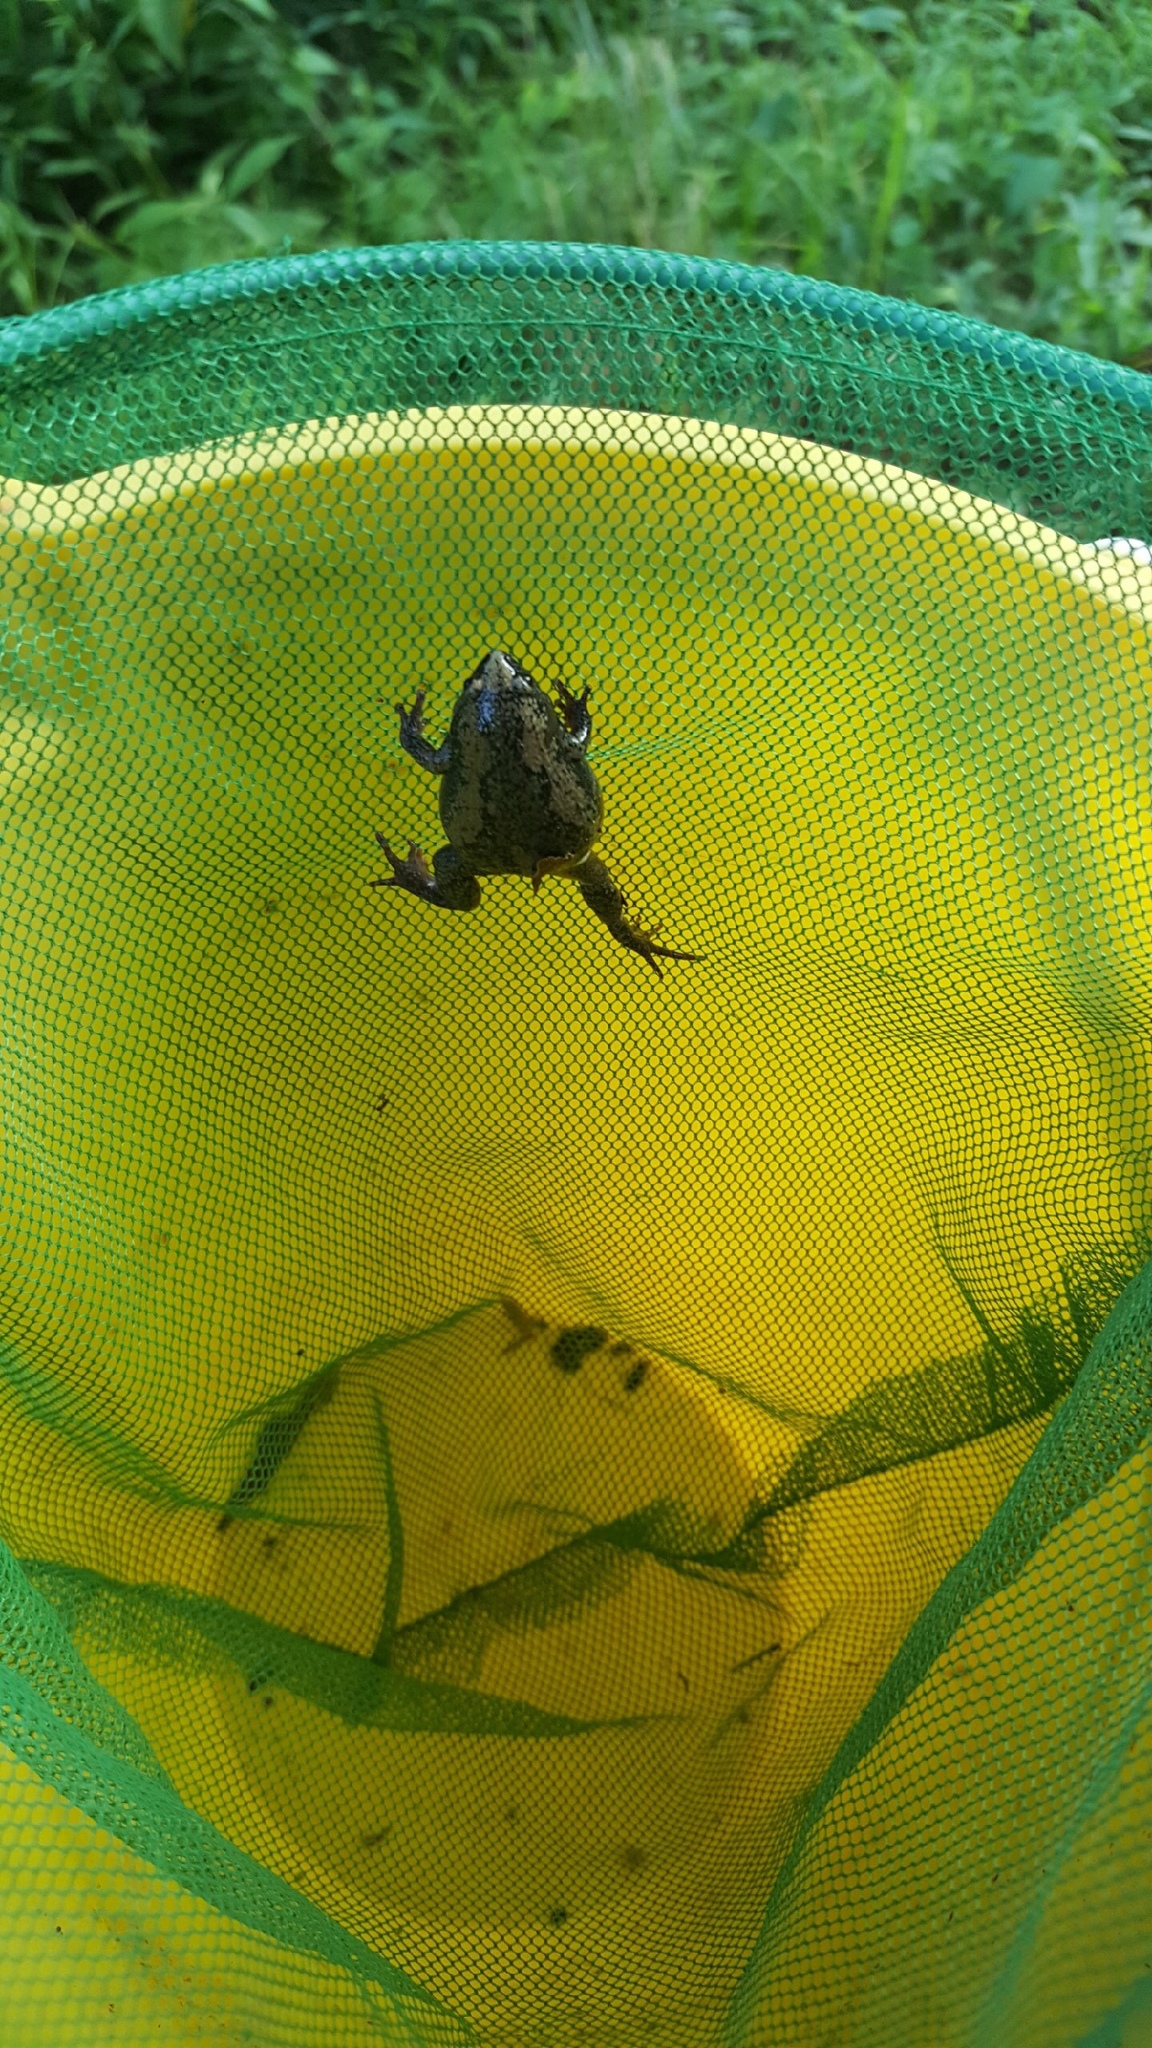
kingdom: Animalia
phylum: Chordata
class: Amphibia
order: Anura
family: Microhylidae
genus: Gastrophryne
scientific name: Gastrophryne carolinensis
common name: Eastern narrowmouth toad
